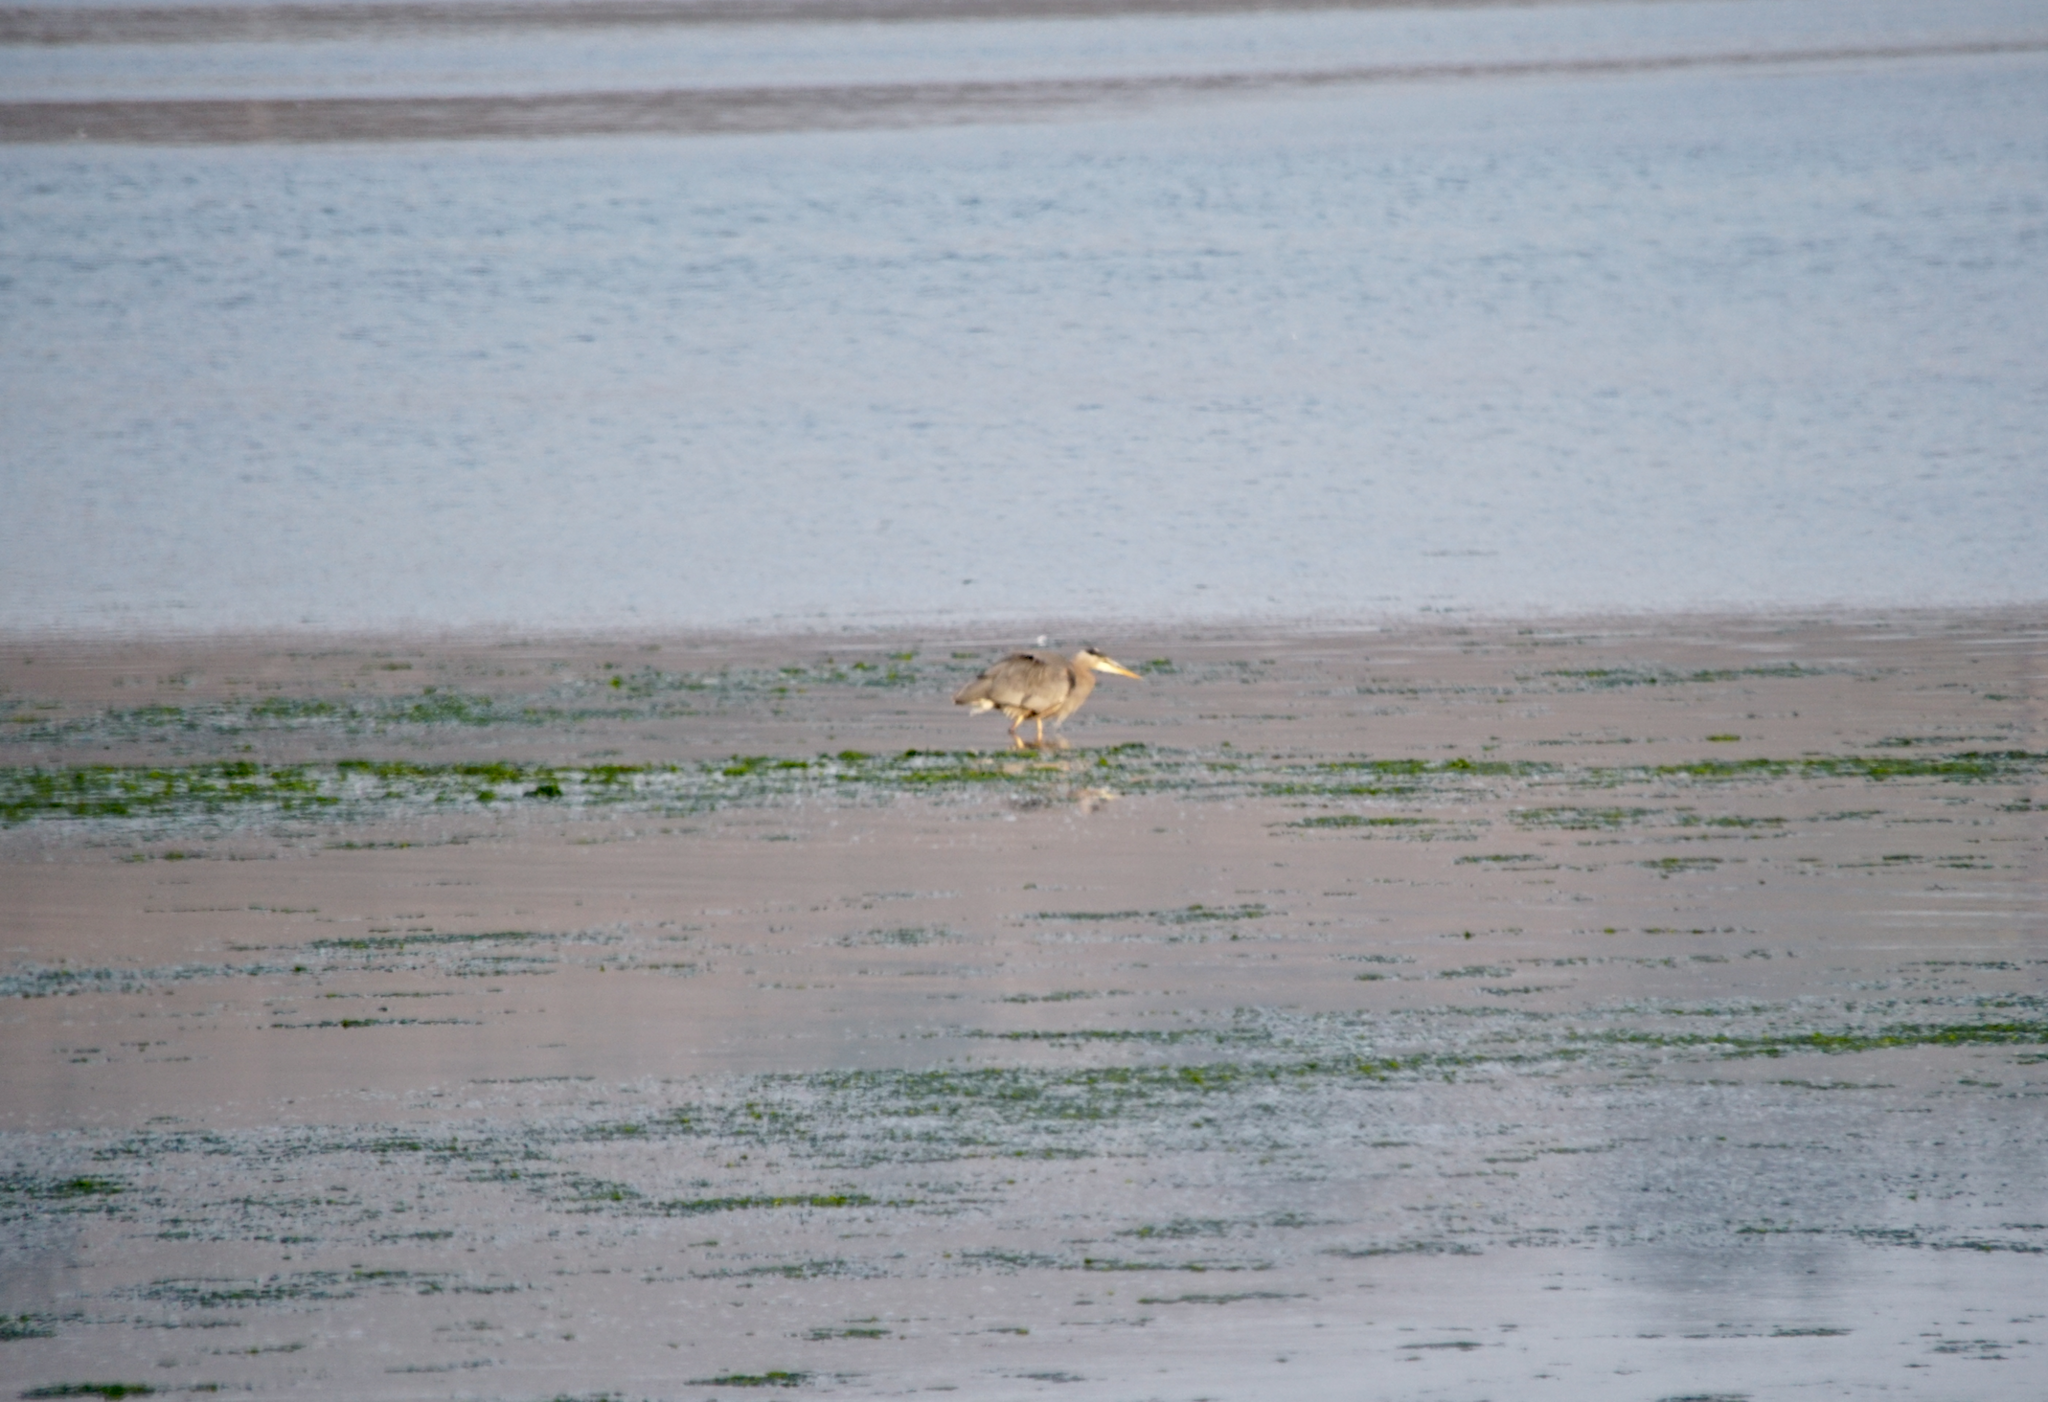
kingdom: Animalia
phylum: Chordata
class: Aves
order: Pelecaniformes
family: Ardeidae
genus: Ardea
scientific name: Ardea herodias
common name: Great blue heron
